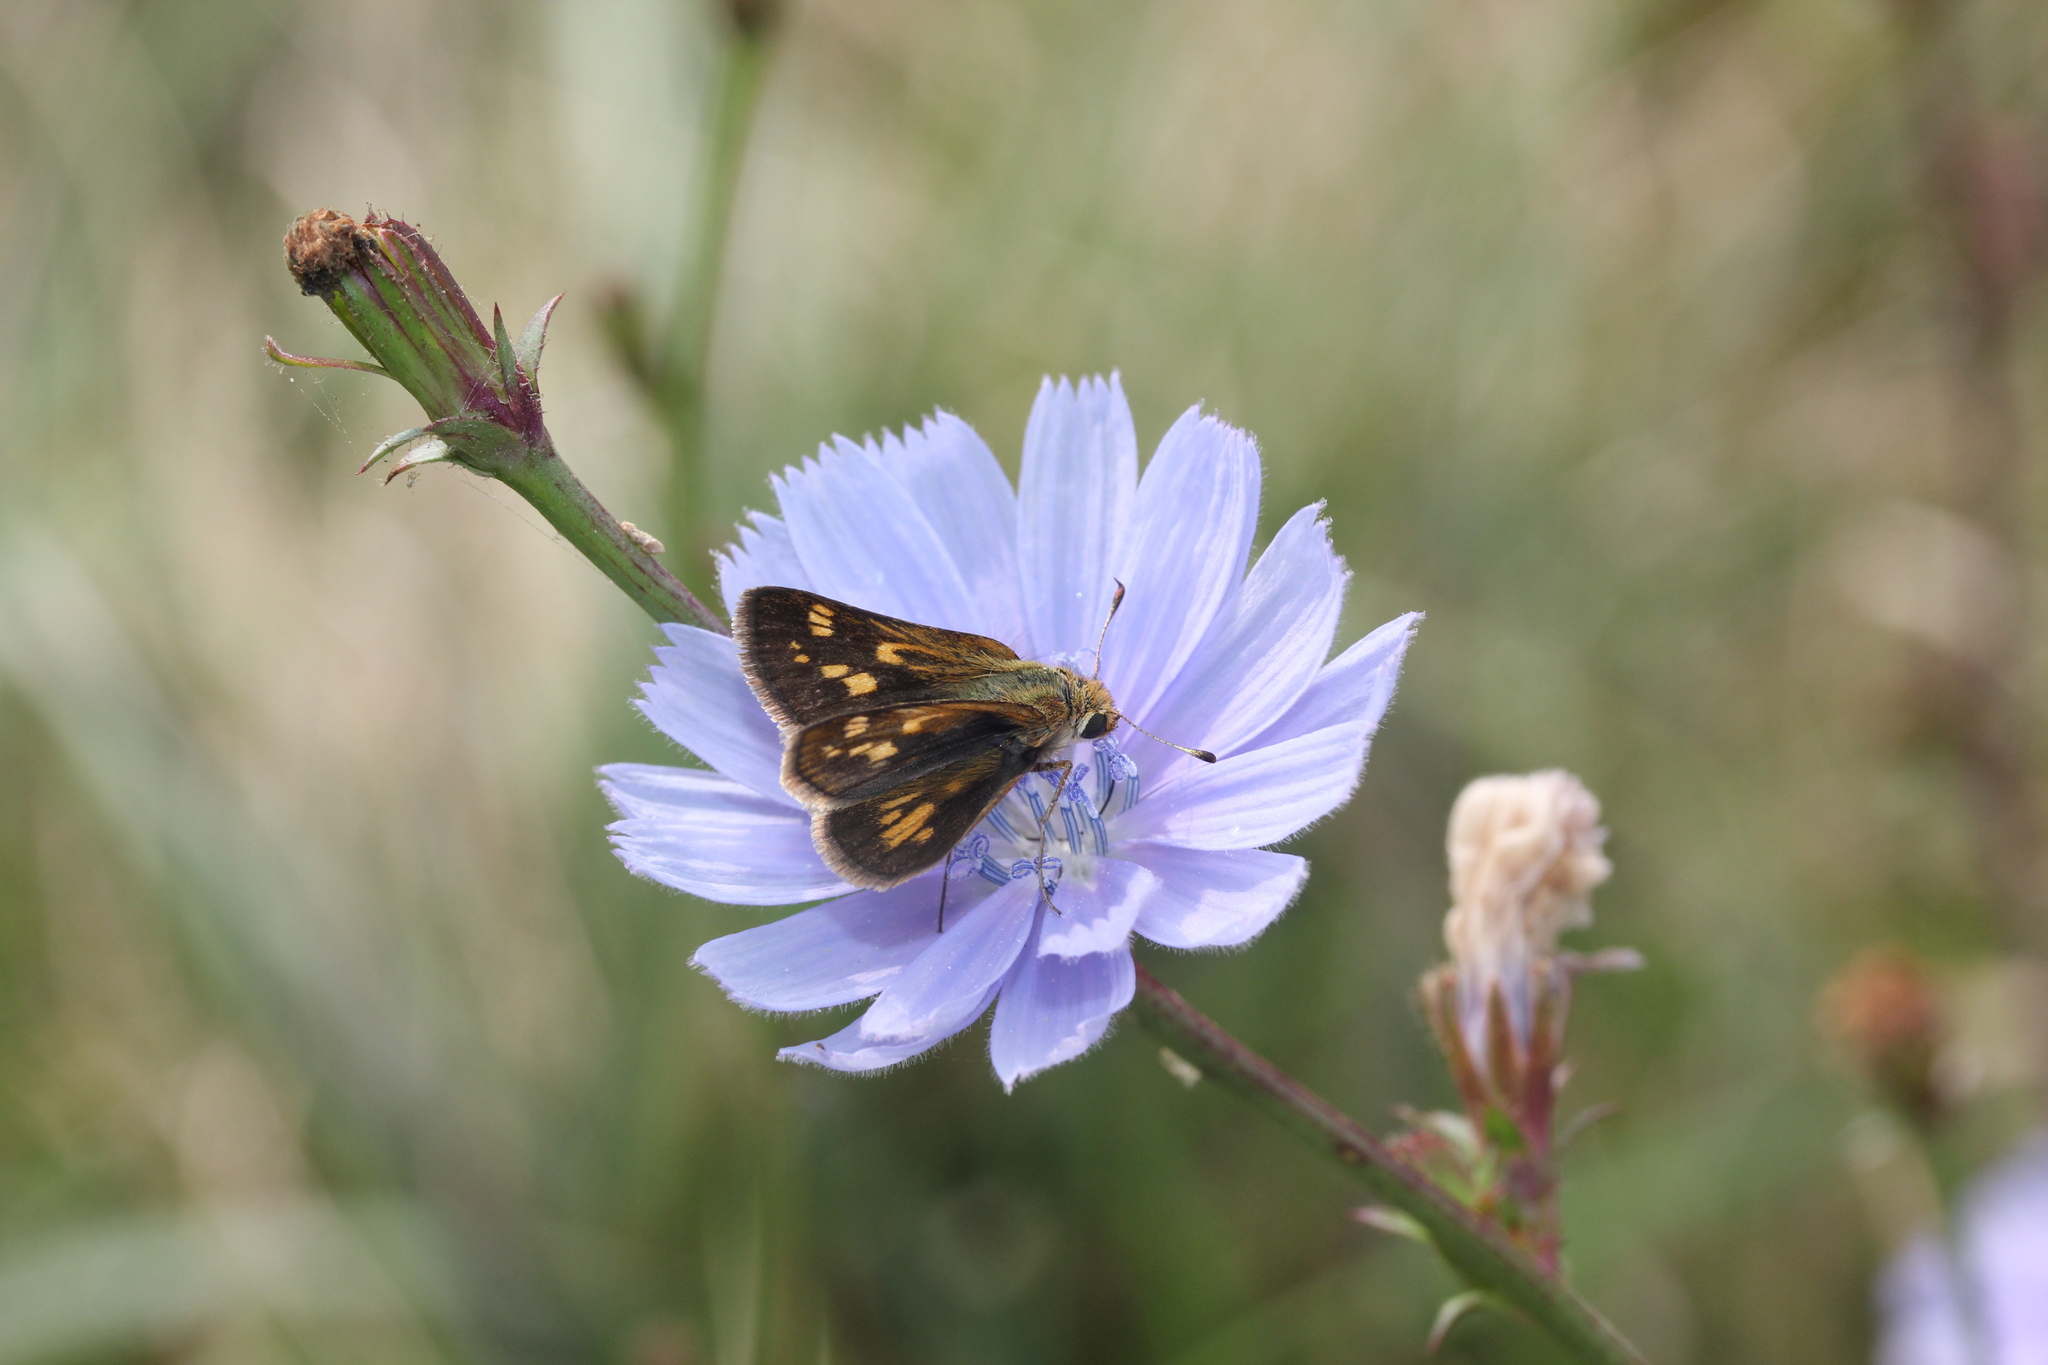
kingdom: Plantae
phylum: Tracheophyta
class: Magnoliopsida
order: Asterales
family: Asteraceae
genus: Cichorium
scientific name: Cichorium intybus
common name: Chicory
